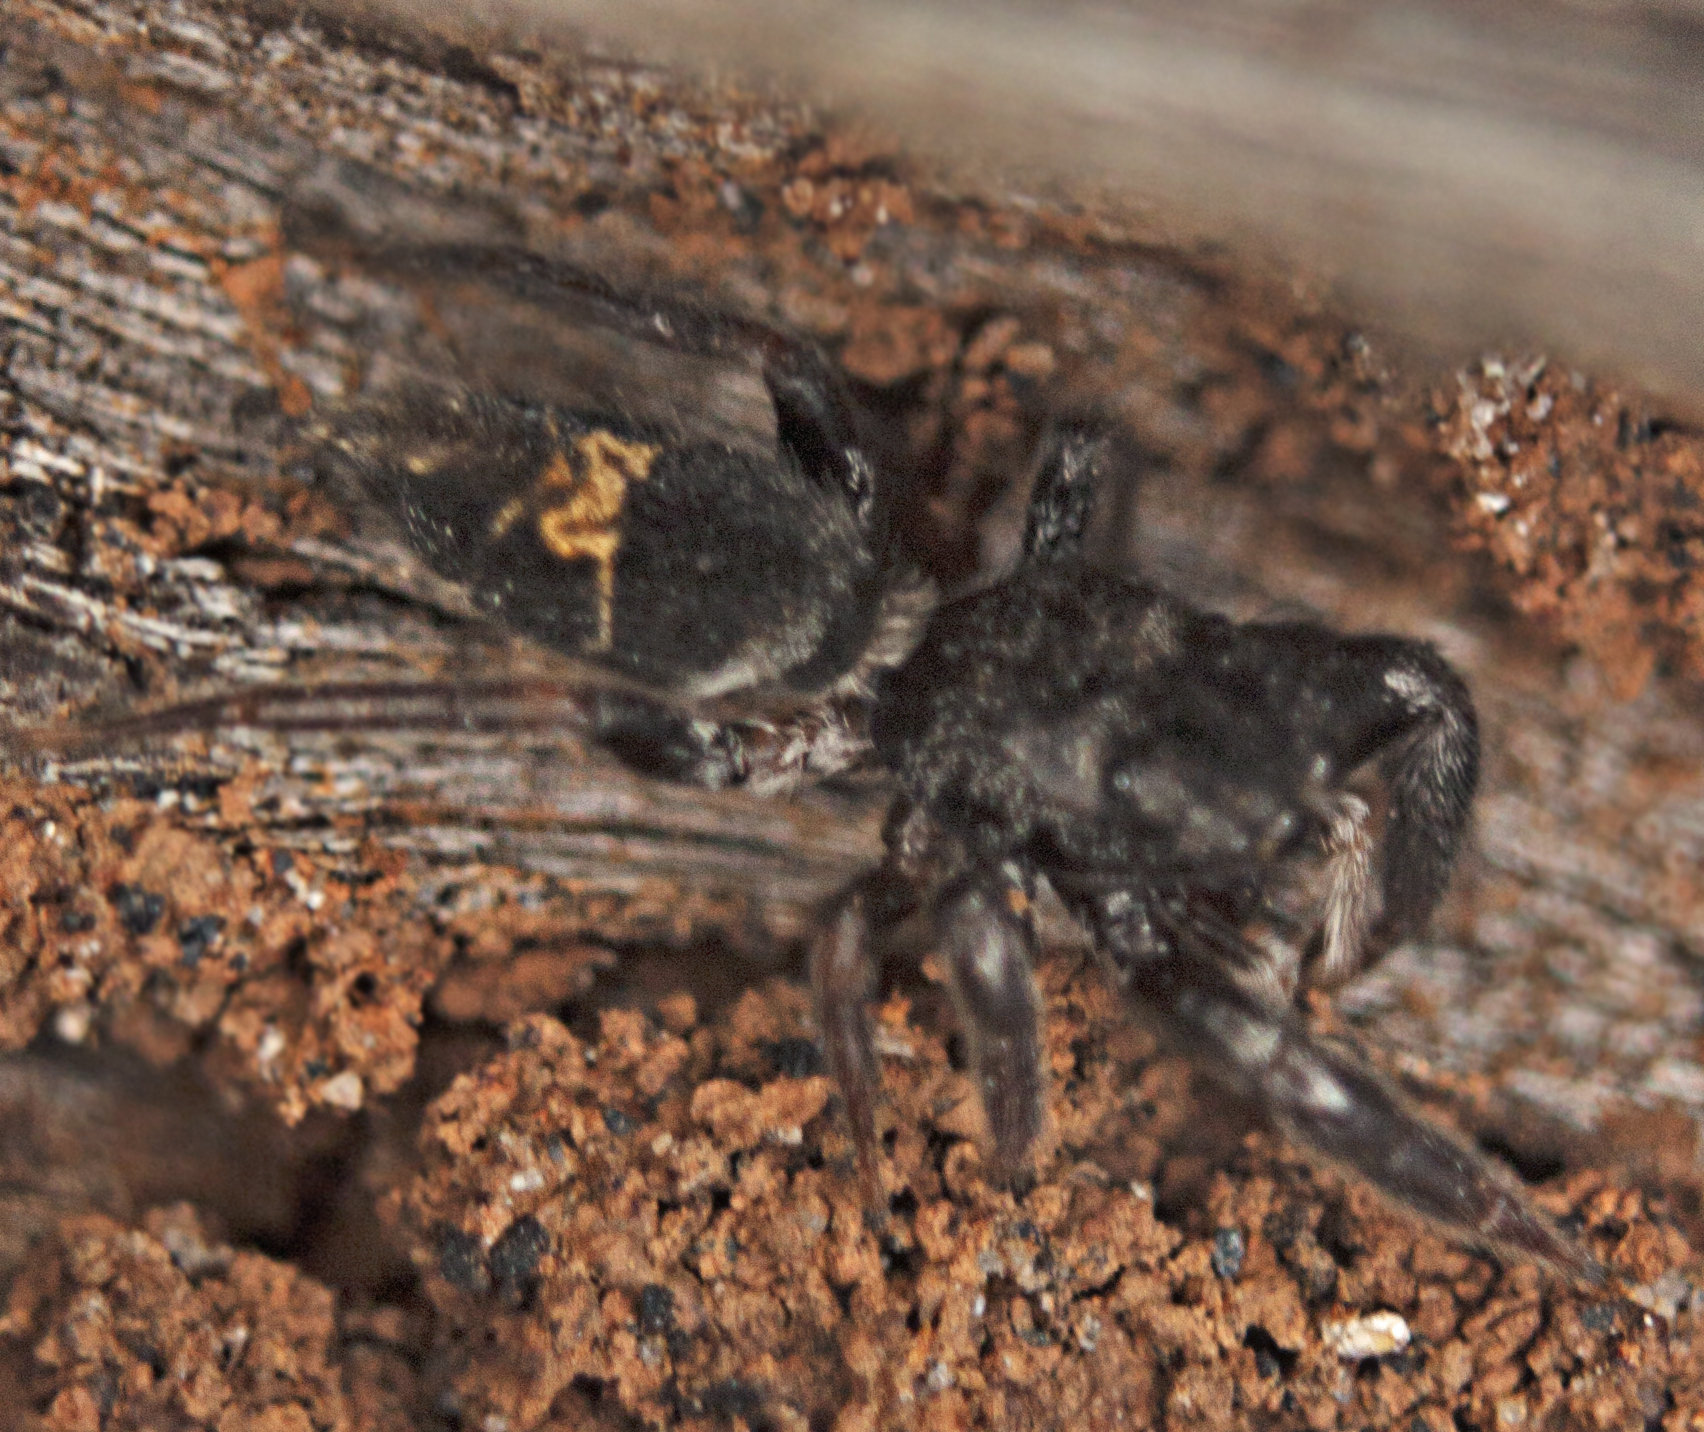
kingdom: Animalia
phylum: Arthropoda
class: Arachnida
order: Araneae
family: Salticidae
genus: Apricia
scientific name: Apricia jovialis
